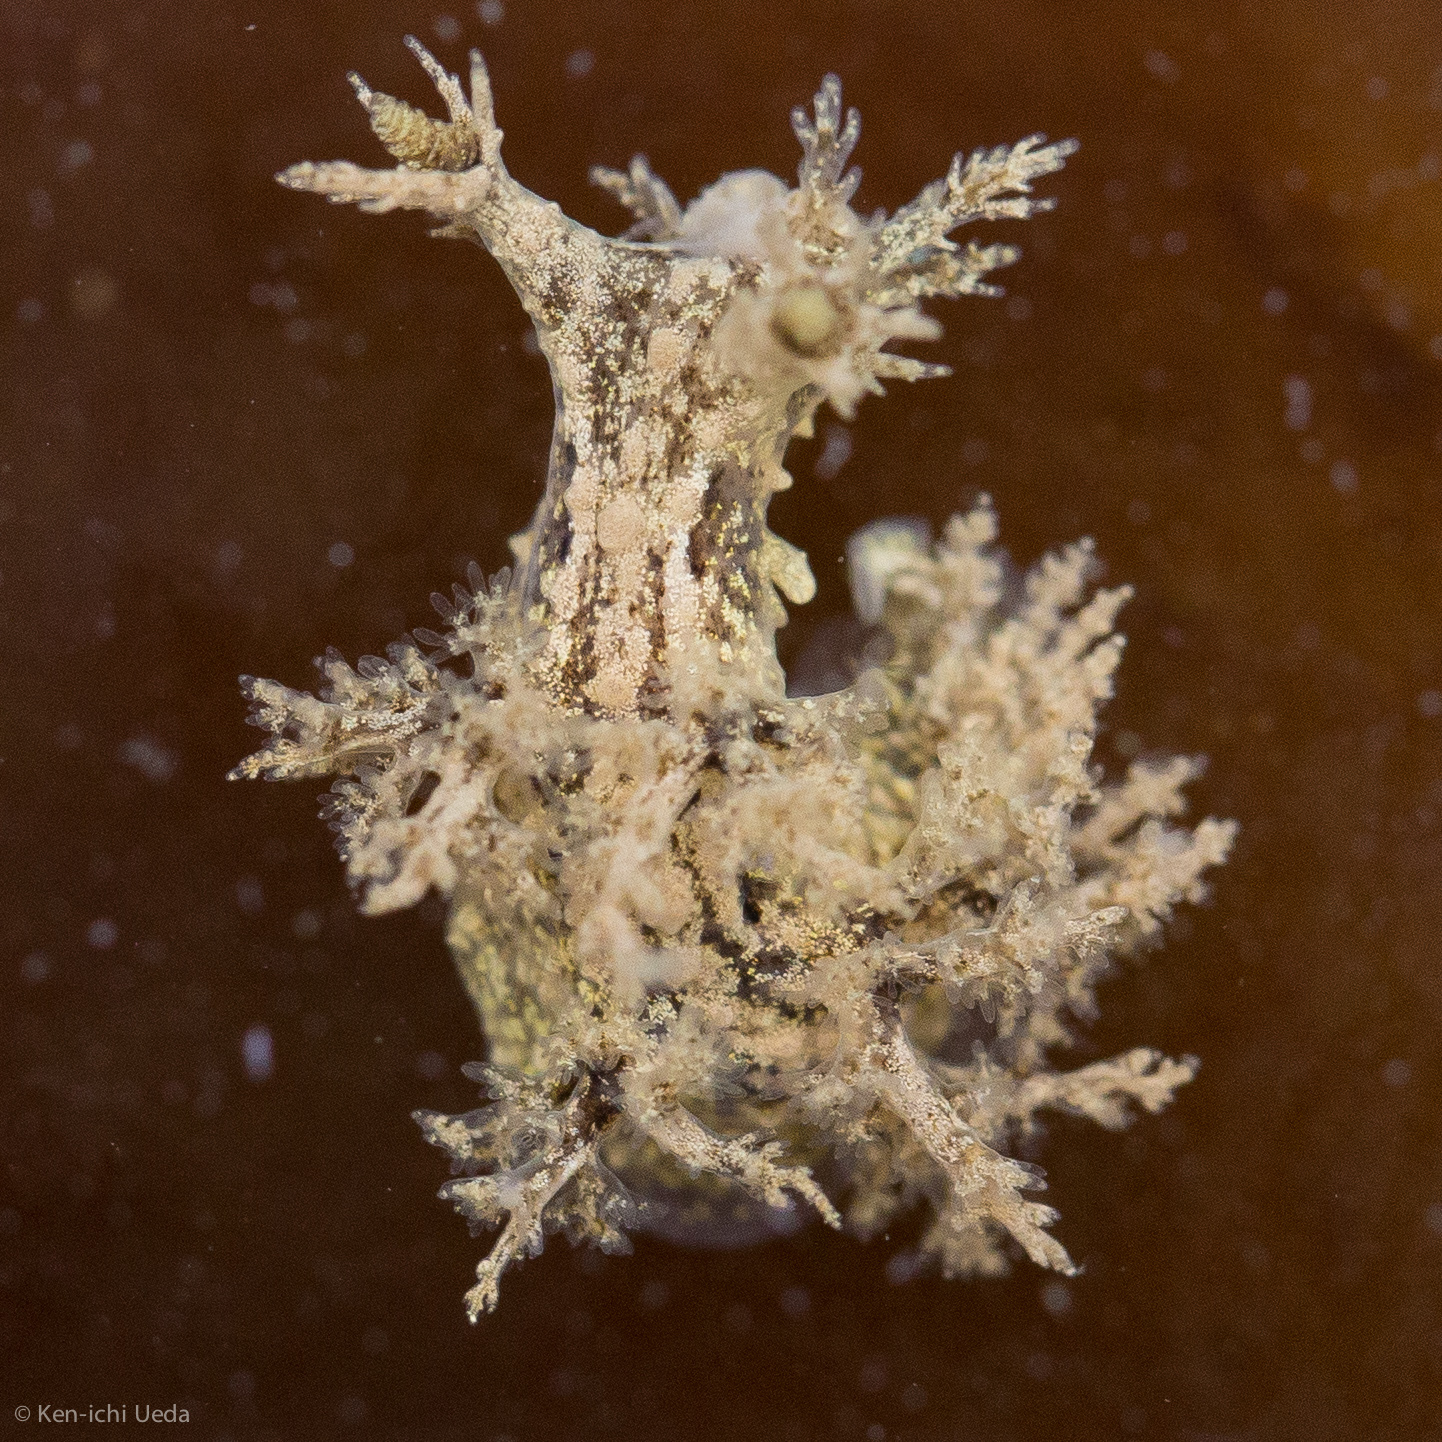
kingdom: Animalia
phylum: Mollusca
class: Gastropoda
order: Nudibranchia
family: Dendronotidae
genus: Dendronotus
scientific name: Dendronotus venustus
